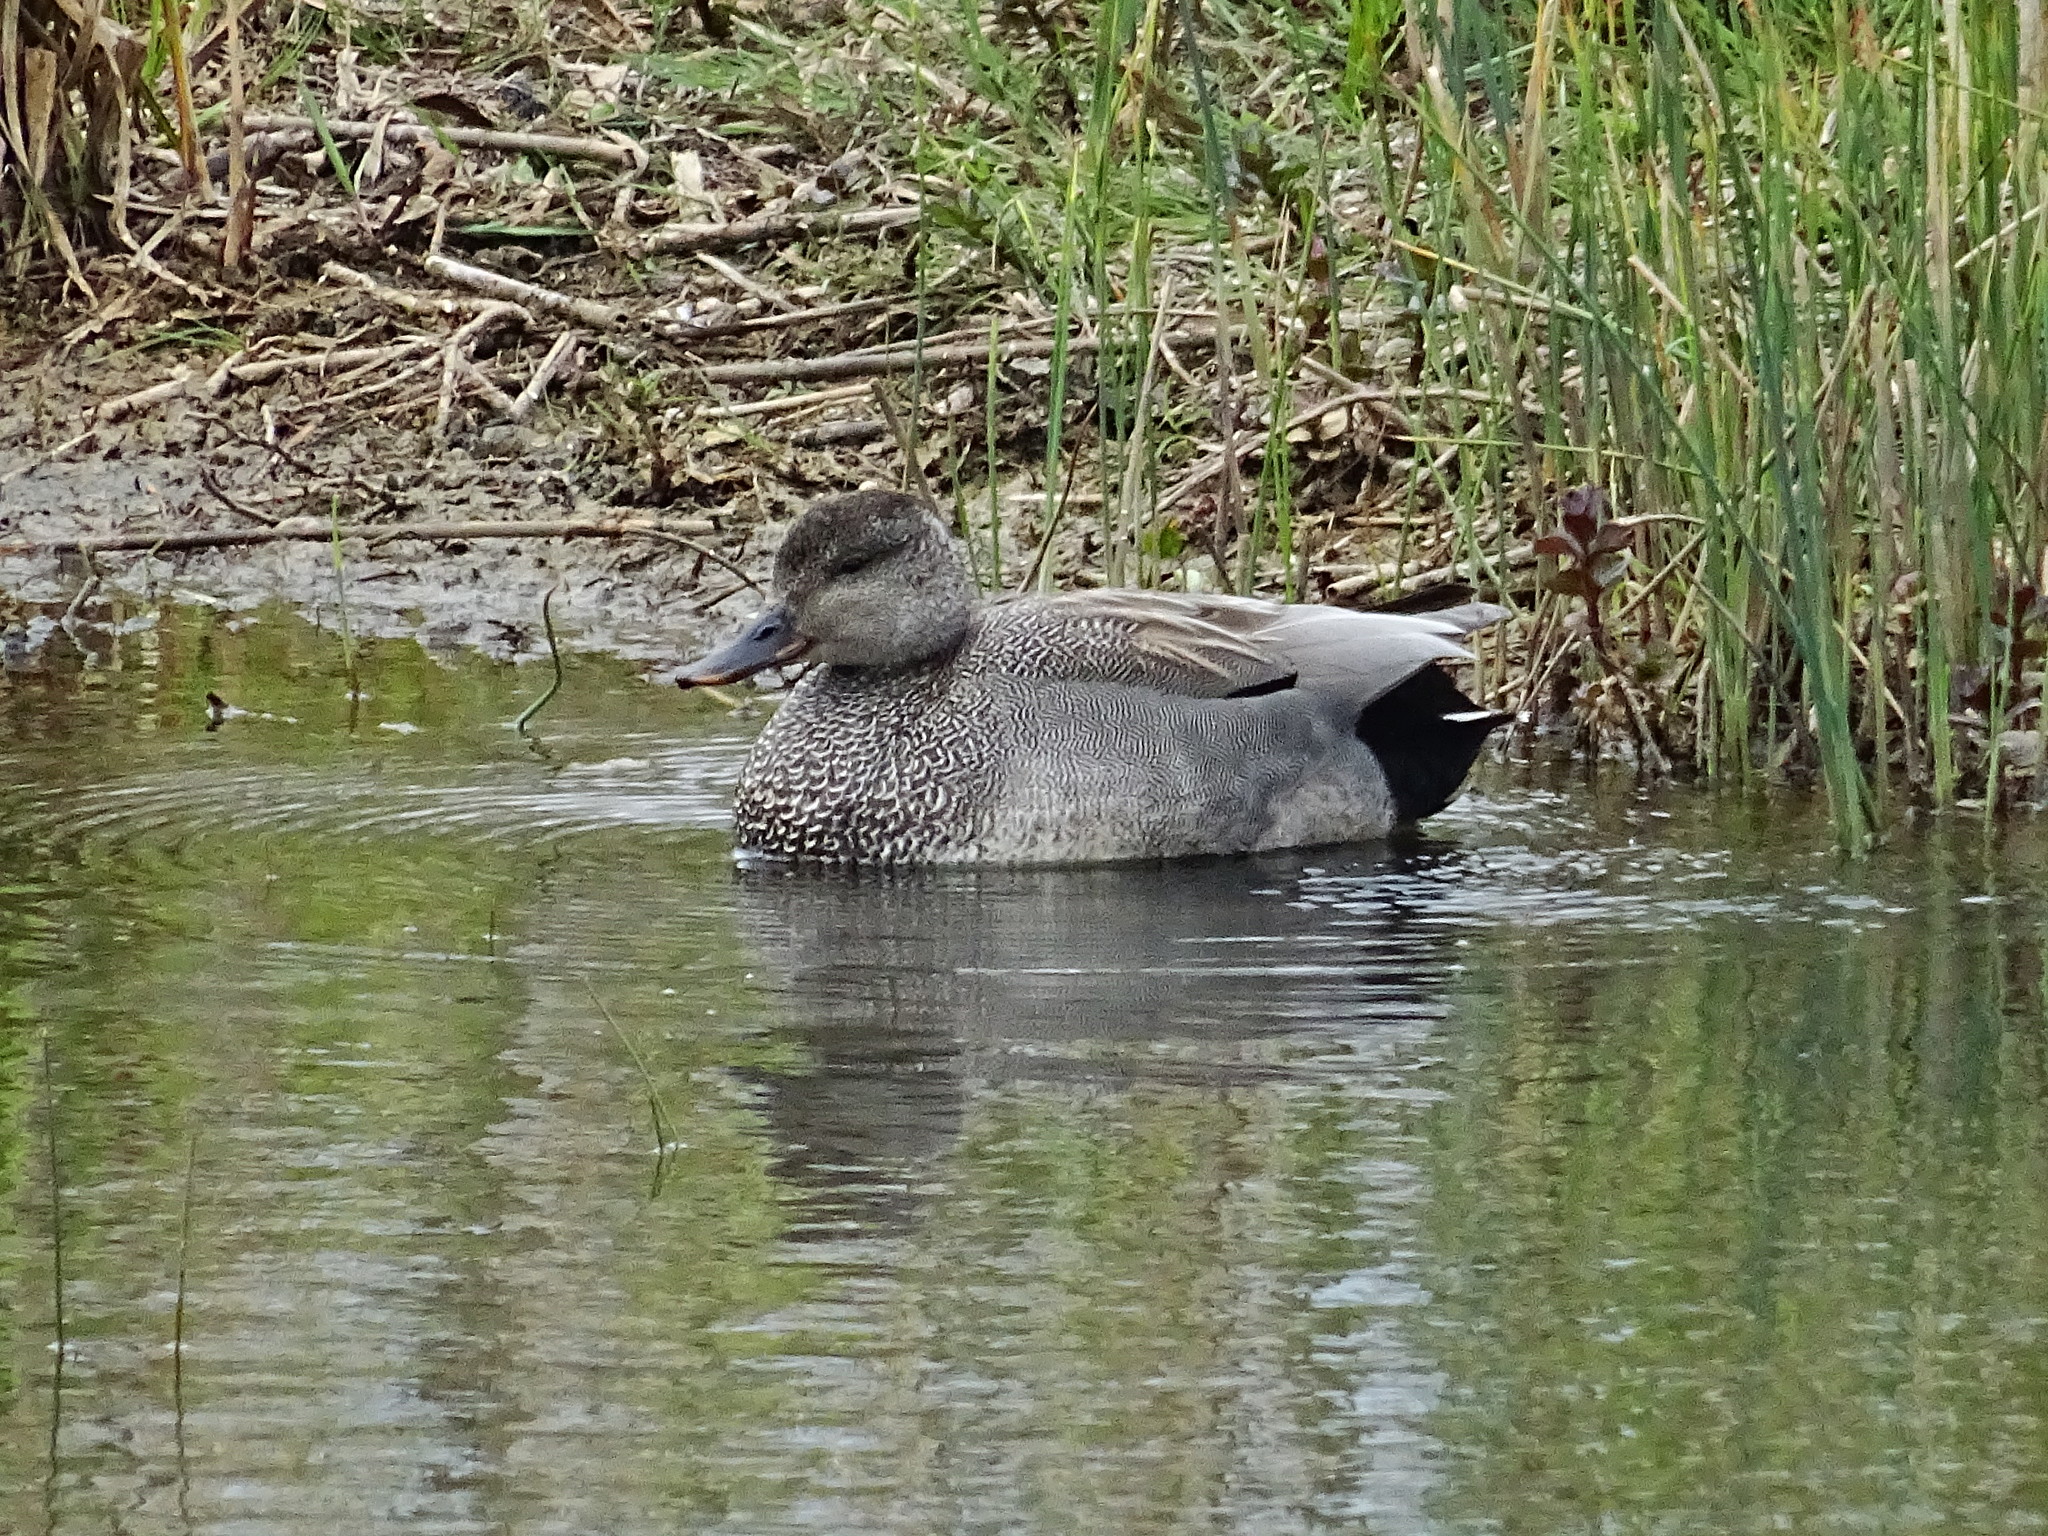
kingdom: Animalia
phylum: Chordata
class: Aves
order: Anseriformes
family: Anatidae
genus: Mareca
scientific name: Mareca strepera
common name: Gadwall
